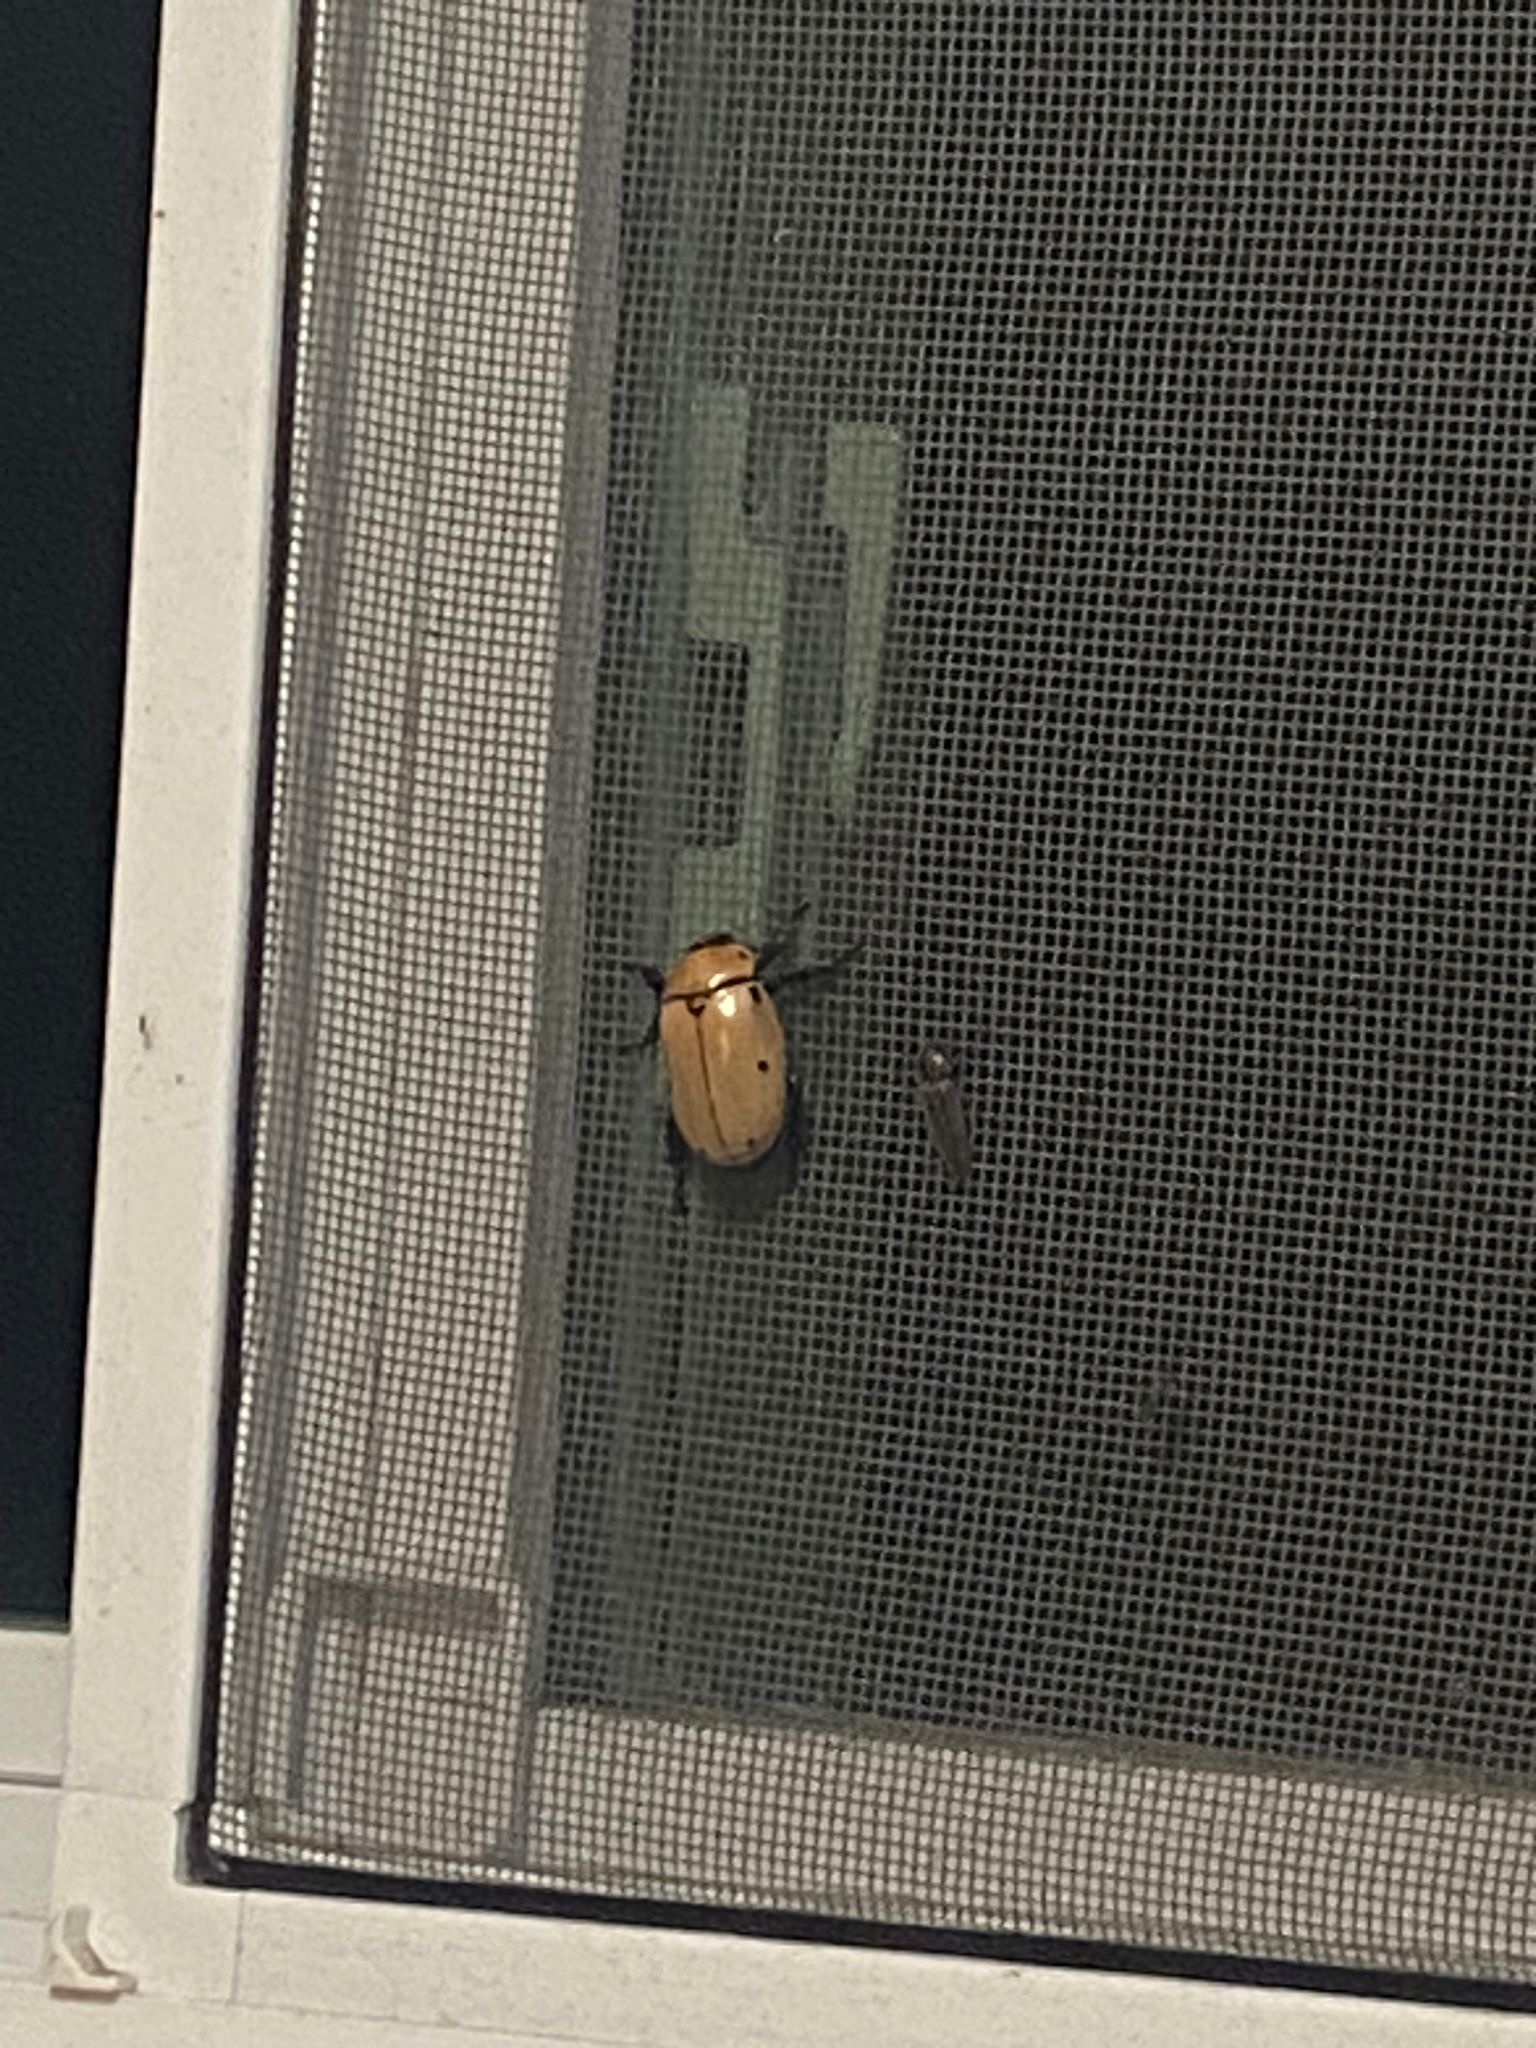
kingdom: Animalia
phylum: Arthropoda
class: Insecta
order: Coleoptera
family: Scarabaeidae
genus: Pelidnota
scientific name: Pelidnota punctata
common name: Grapevine beetle
